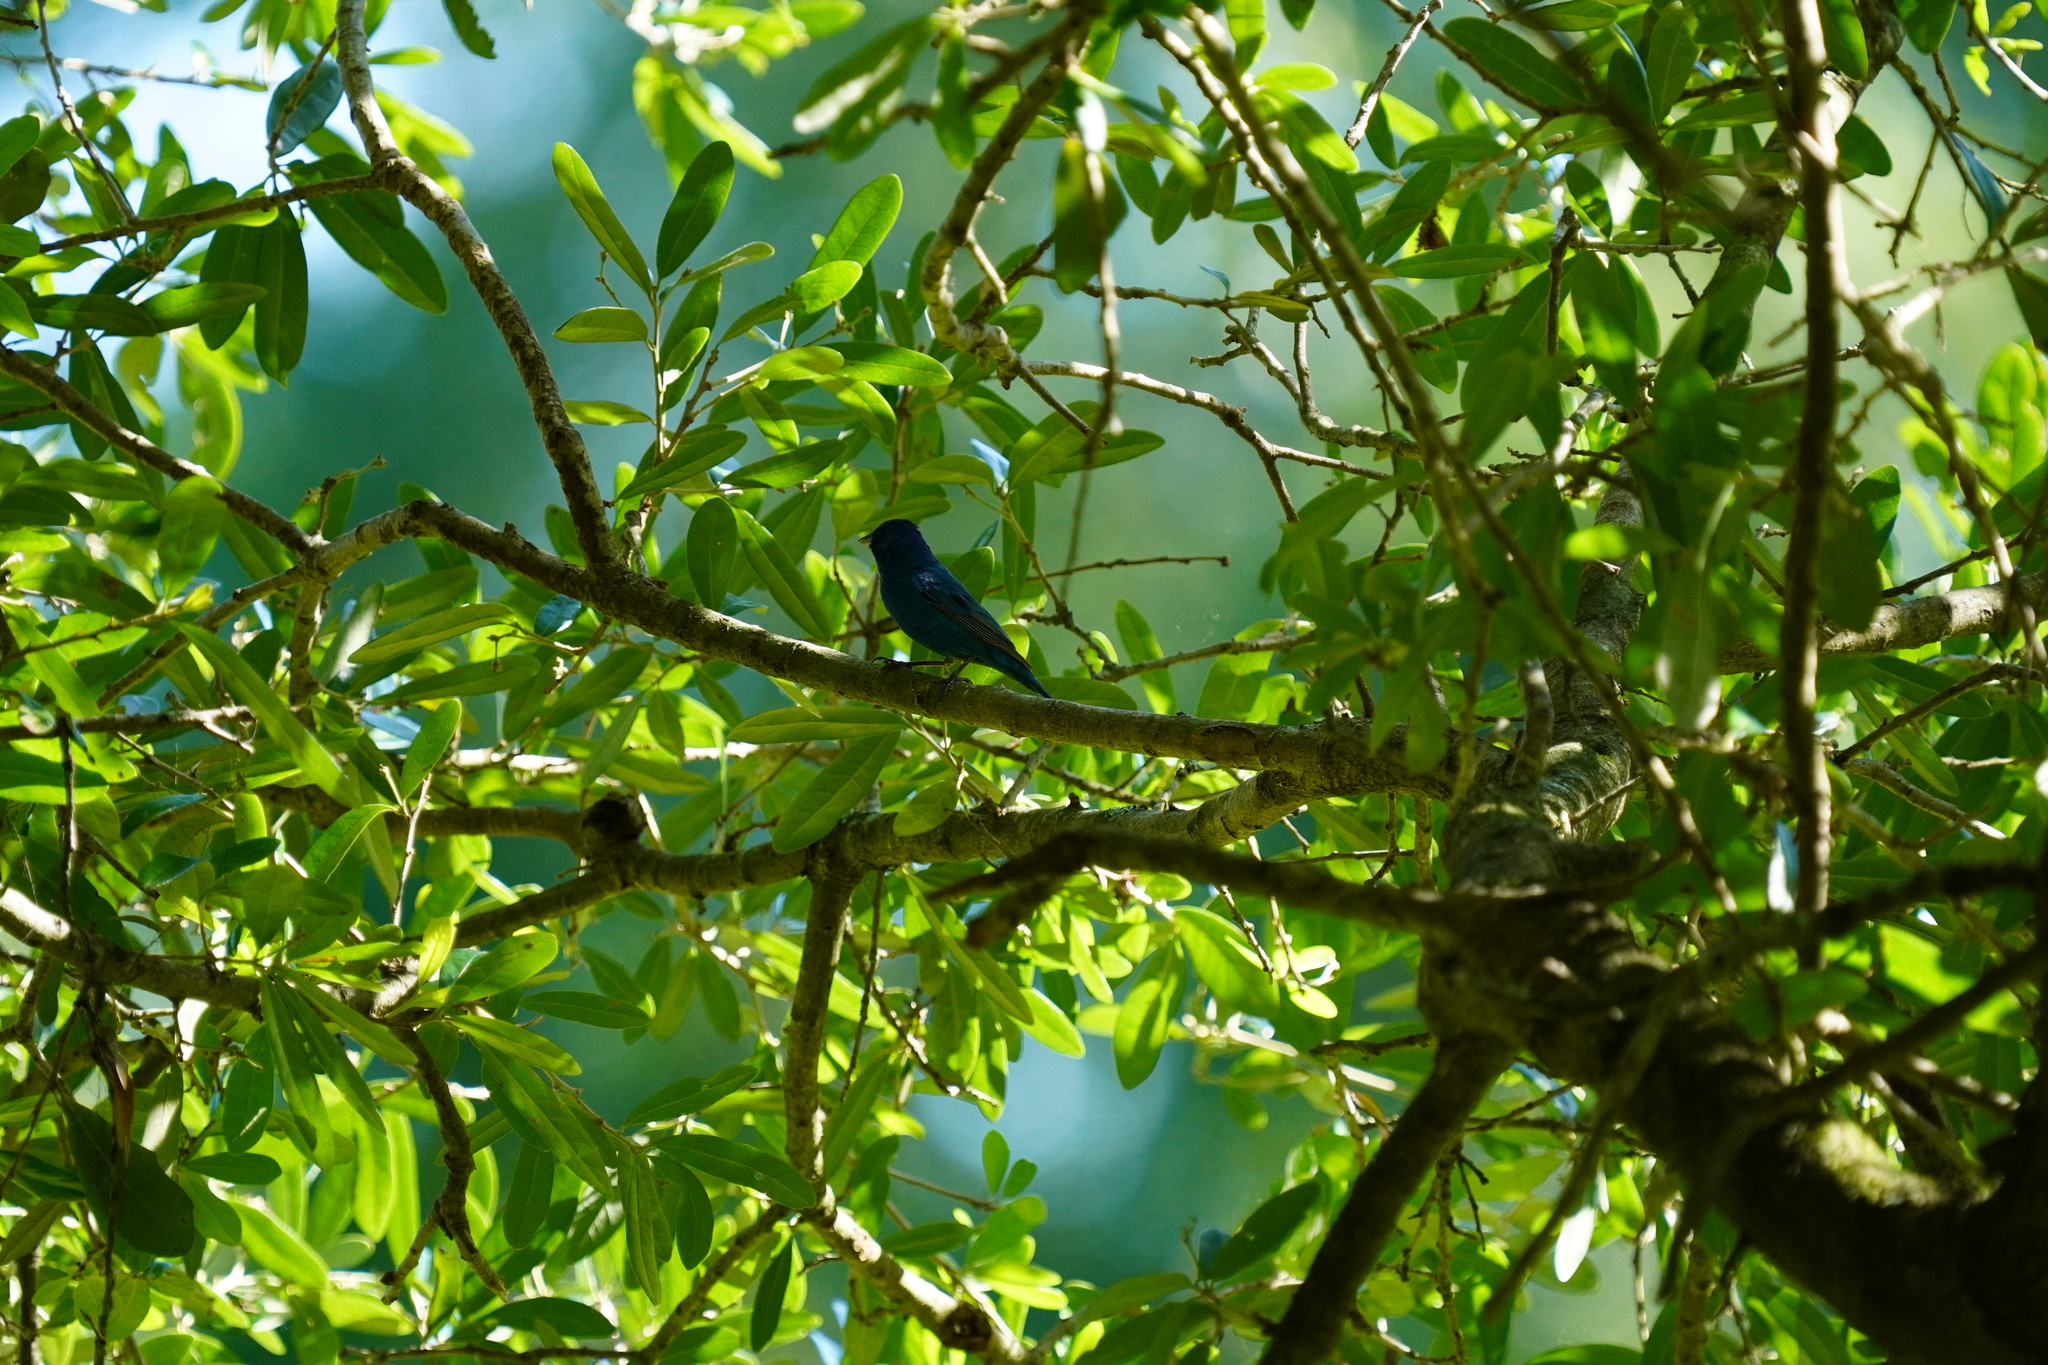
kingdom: Animalia
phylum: Chordata
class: Aves
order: Passeriformes
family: Cardinalidae
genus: Passerina
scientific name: Passerina cyanea
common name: Indigo bunting
